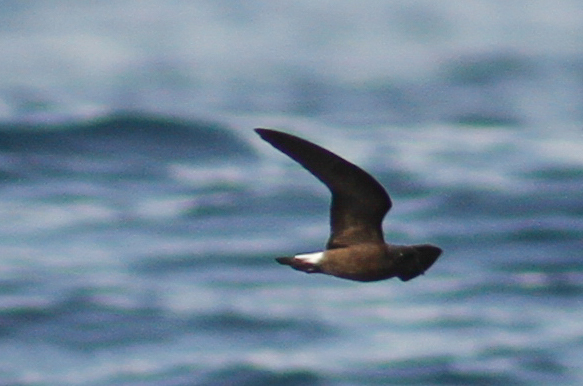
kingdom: Animalia
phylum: Chordata
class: Aves
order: Procellariiformes
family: Hydrobatidae
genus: Oceanodroma
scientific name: Oceanodroma tethys
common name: Wedge-rumped storm-petrel
